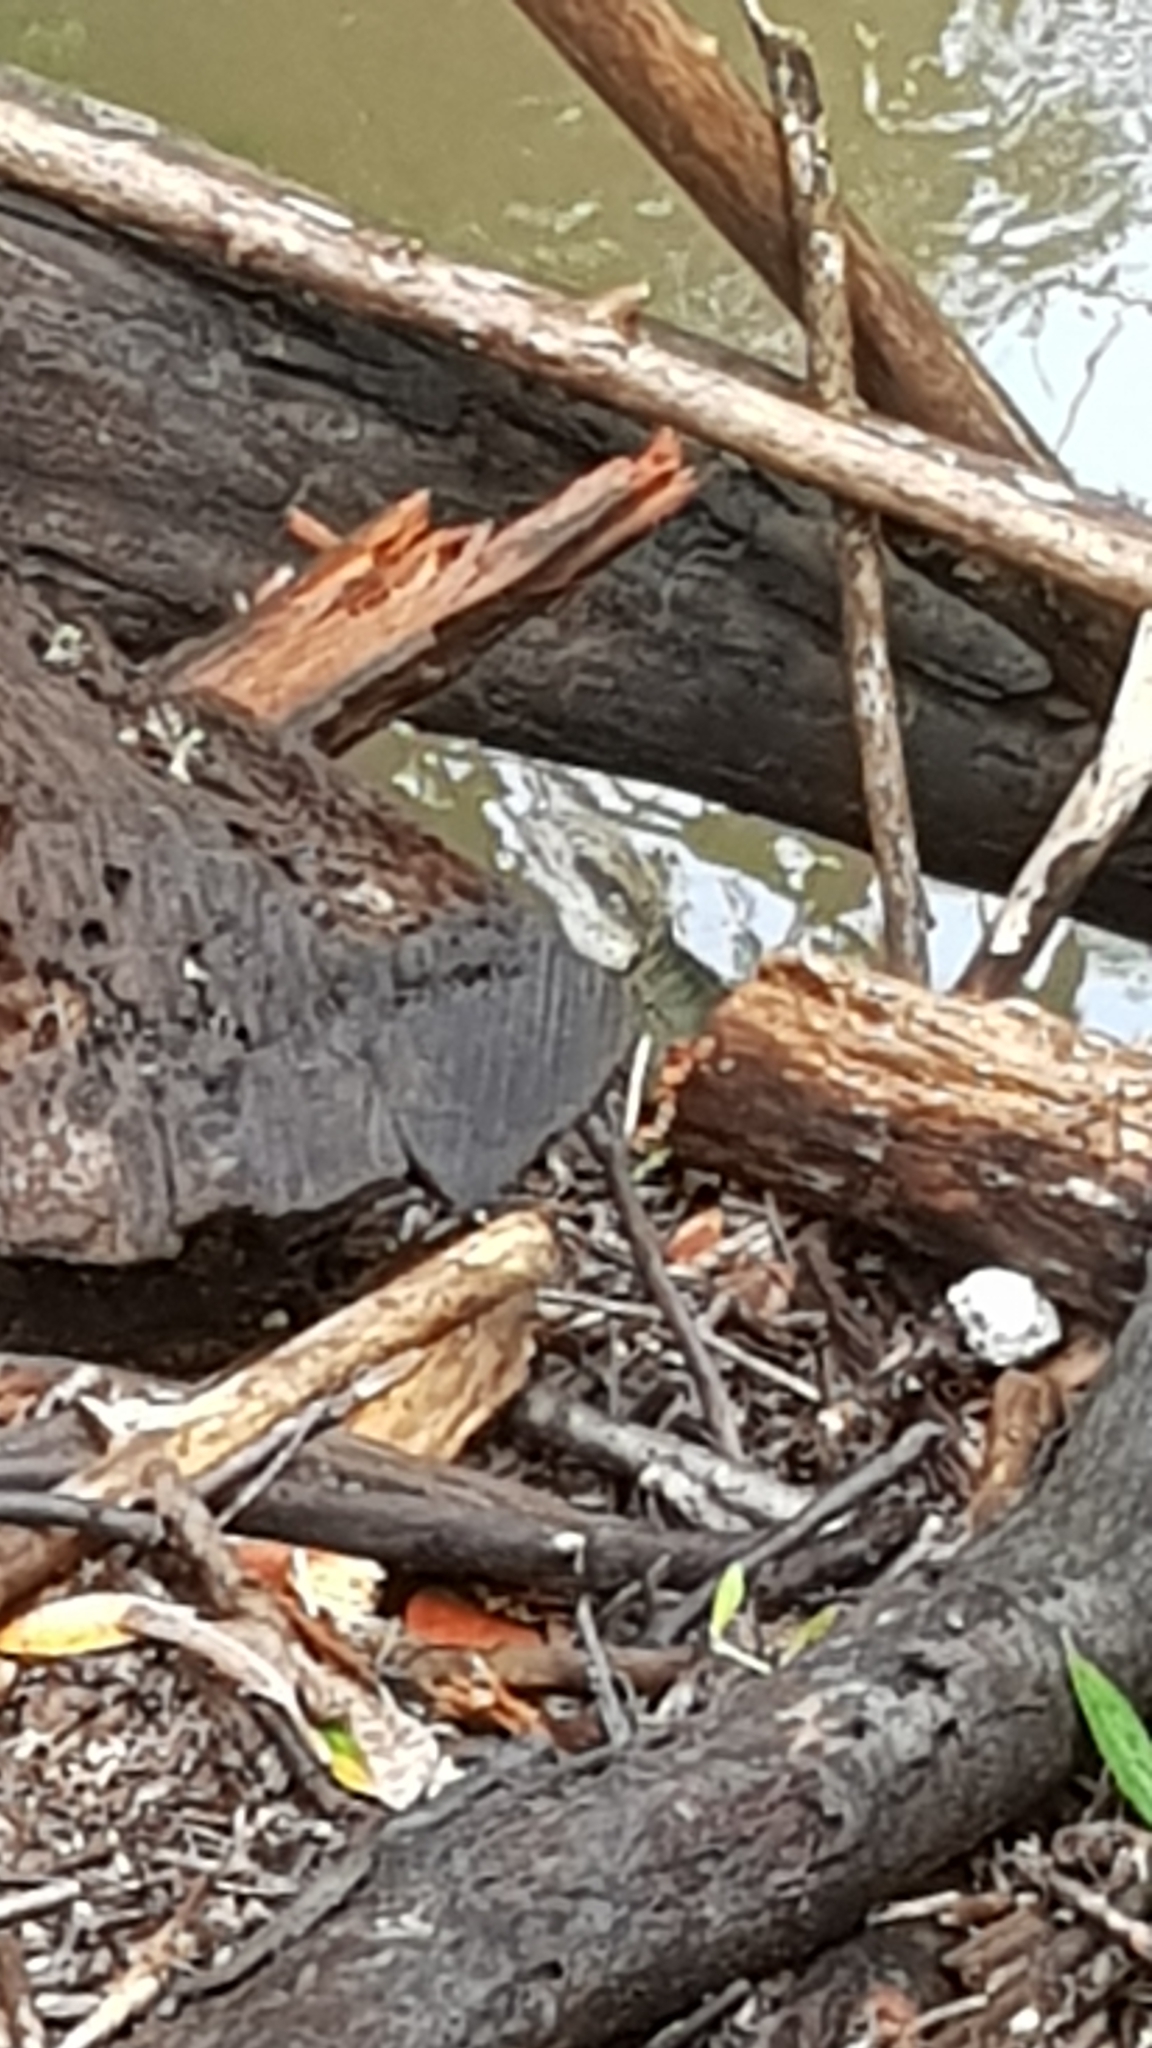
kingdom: Animalia
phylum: Chordata
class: Squamata
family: Agamidae
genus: Intellagama
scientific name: Intellagama lesueurii
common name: Eastern water dragon
